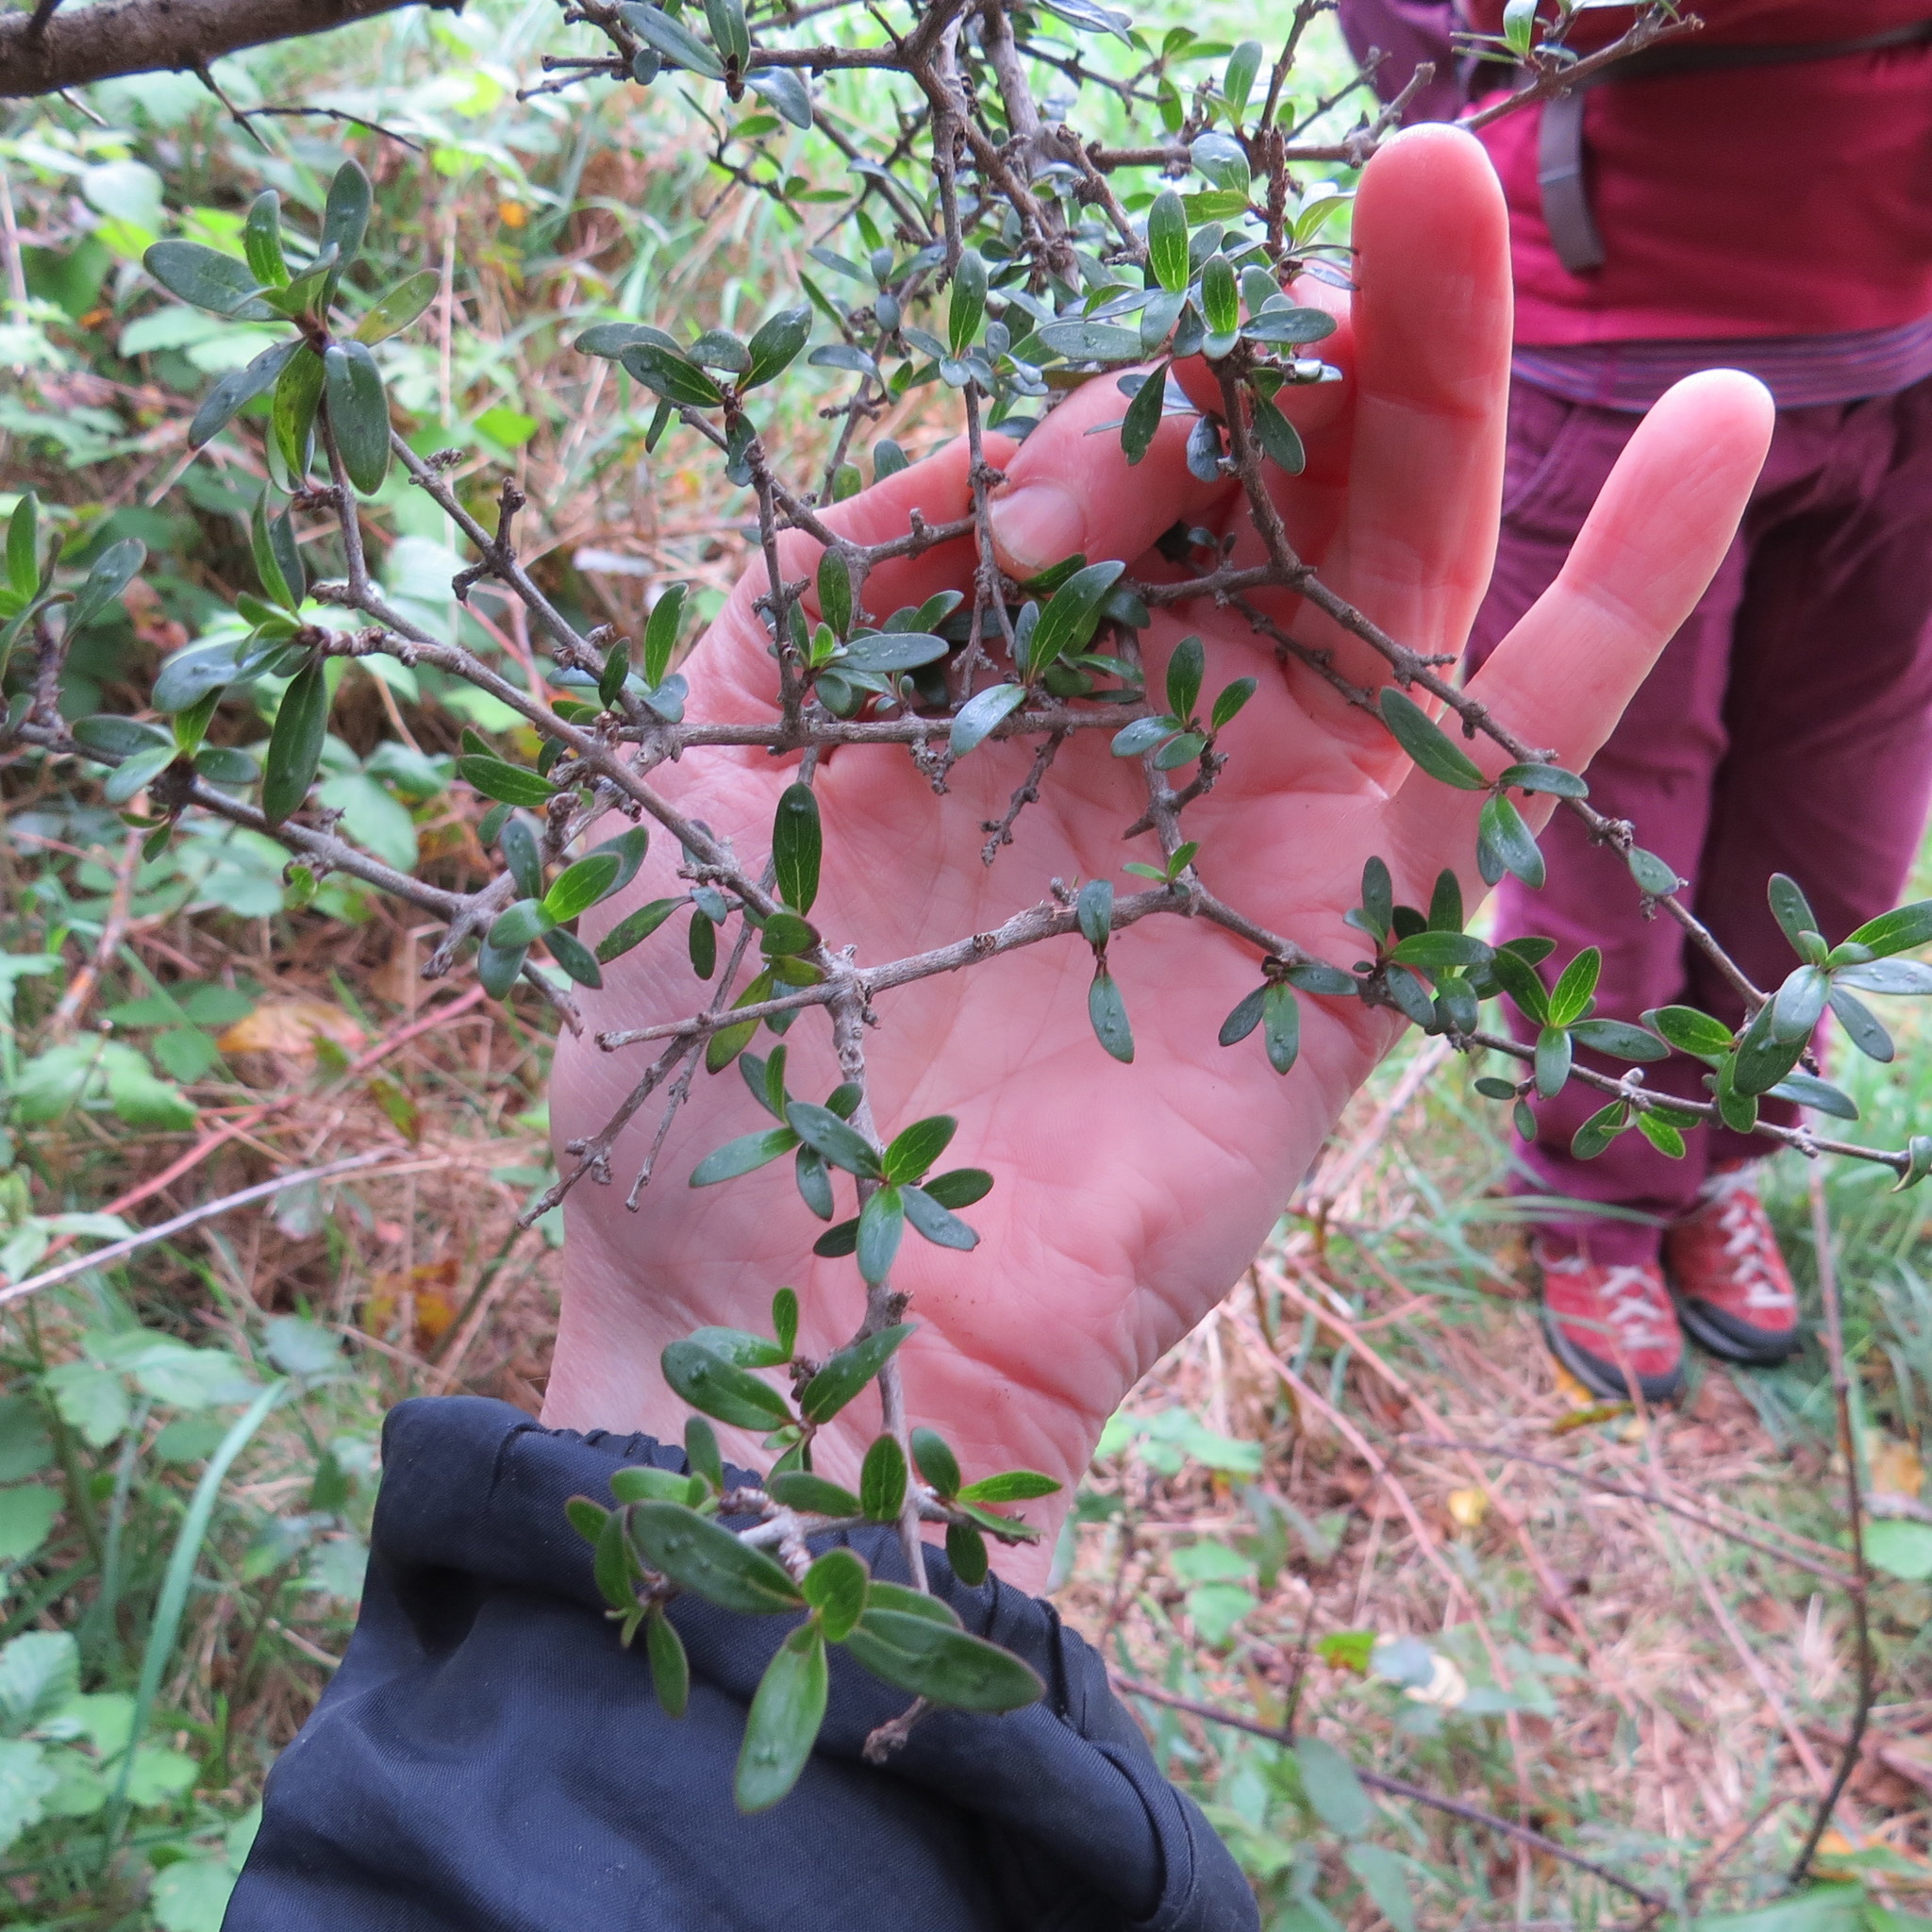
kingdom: Plantae
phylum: Tracheophyta
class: Magnoliopsida
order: Gentianales
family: Rubiaceae
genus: Coprosma
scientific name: Coprosma propinqua
